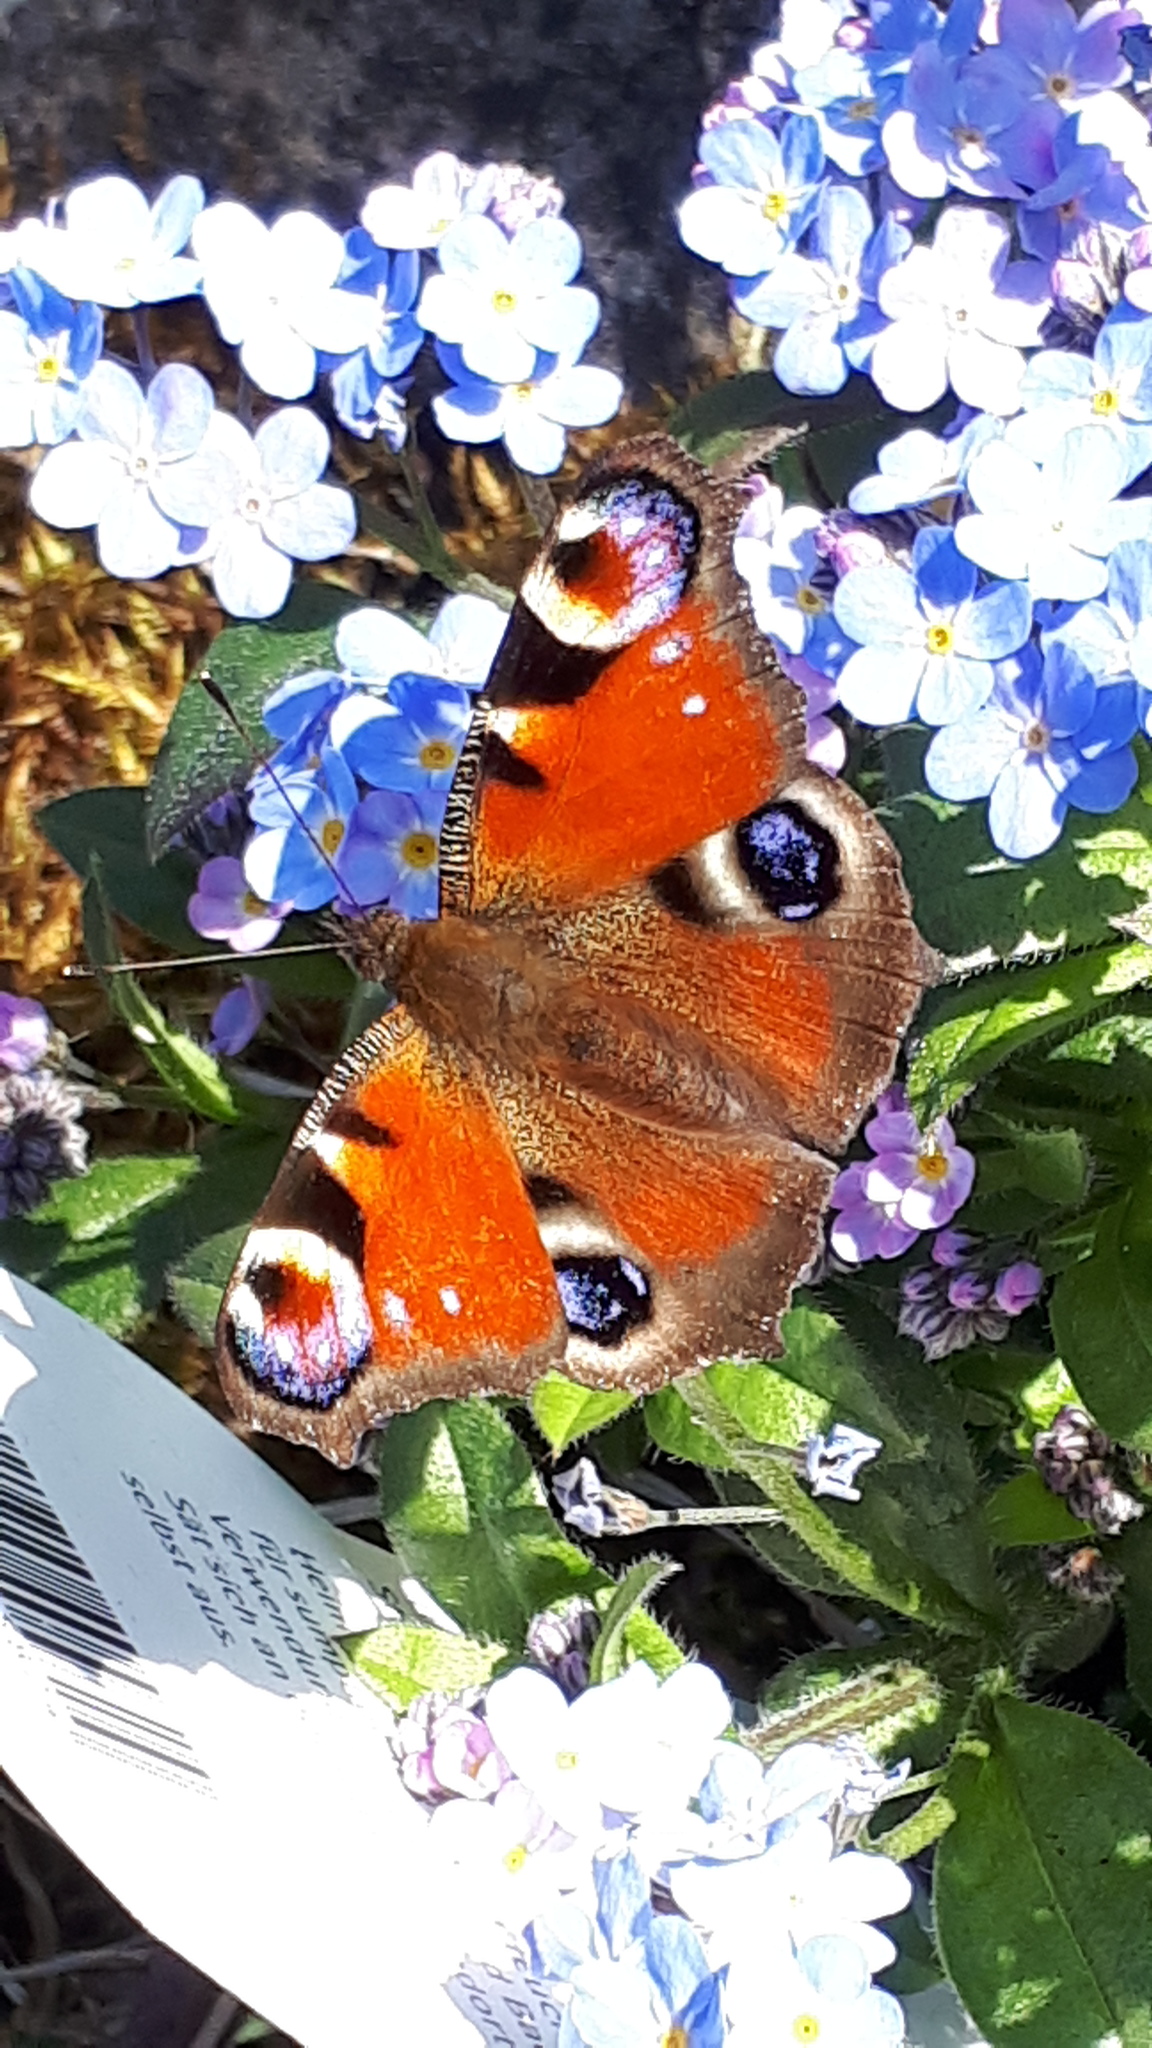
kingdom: Animalia
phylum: Arthropoda
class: Insecta
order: Lepidoptera
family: Nymphalidae
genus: Aglais
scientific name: Aglais io
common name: Peacock
